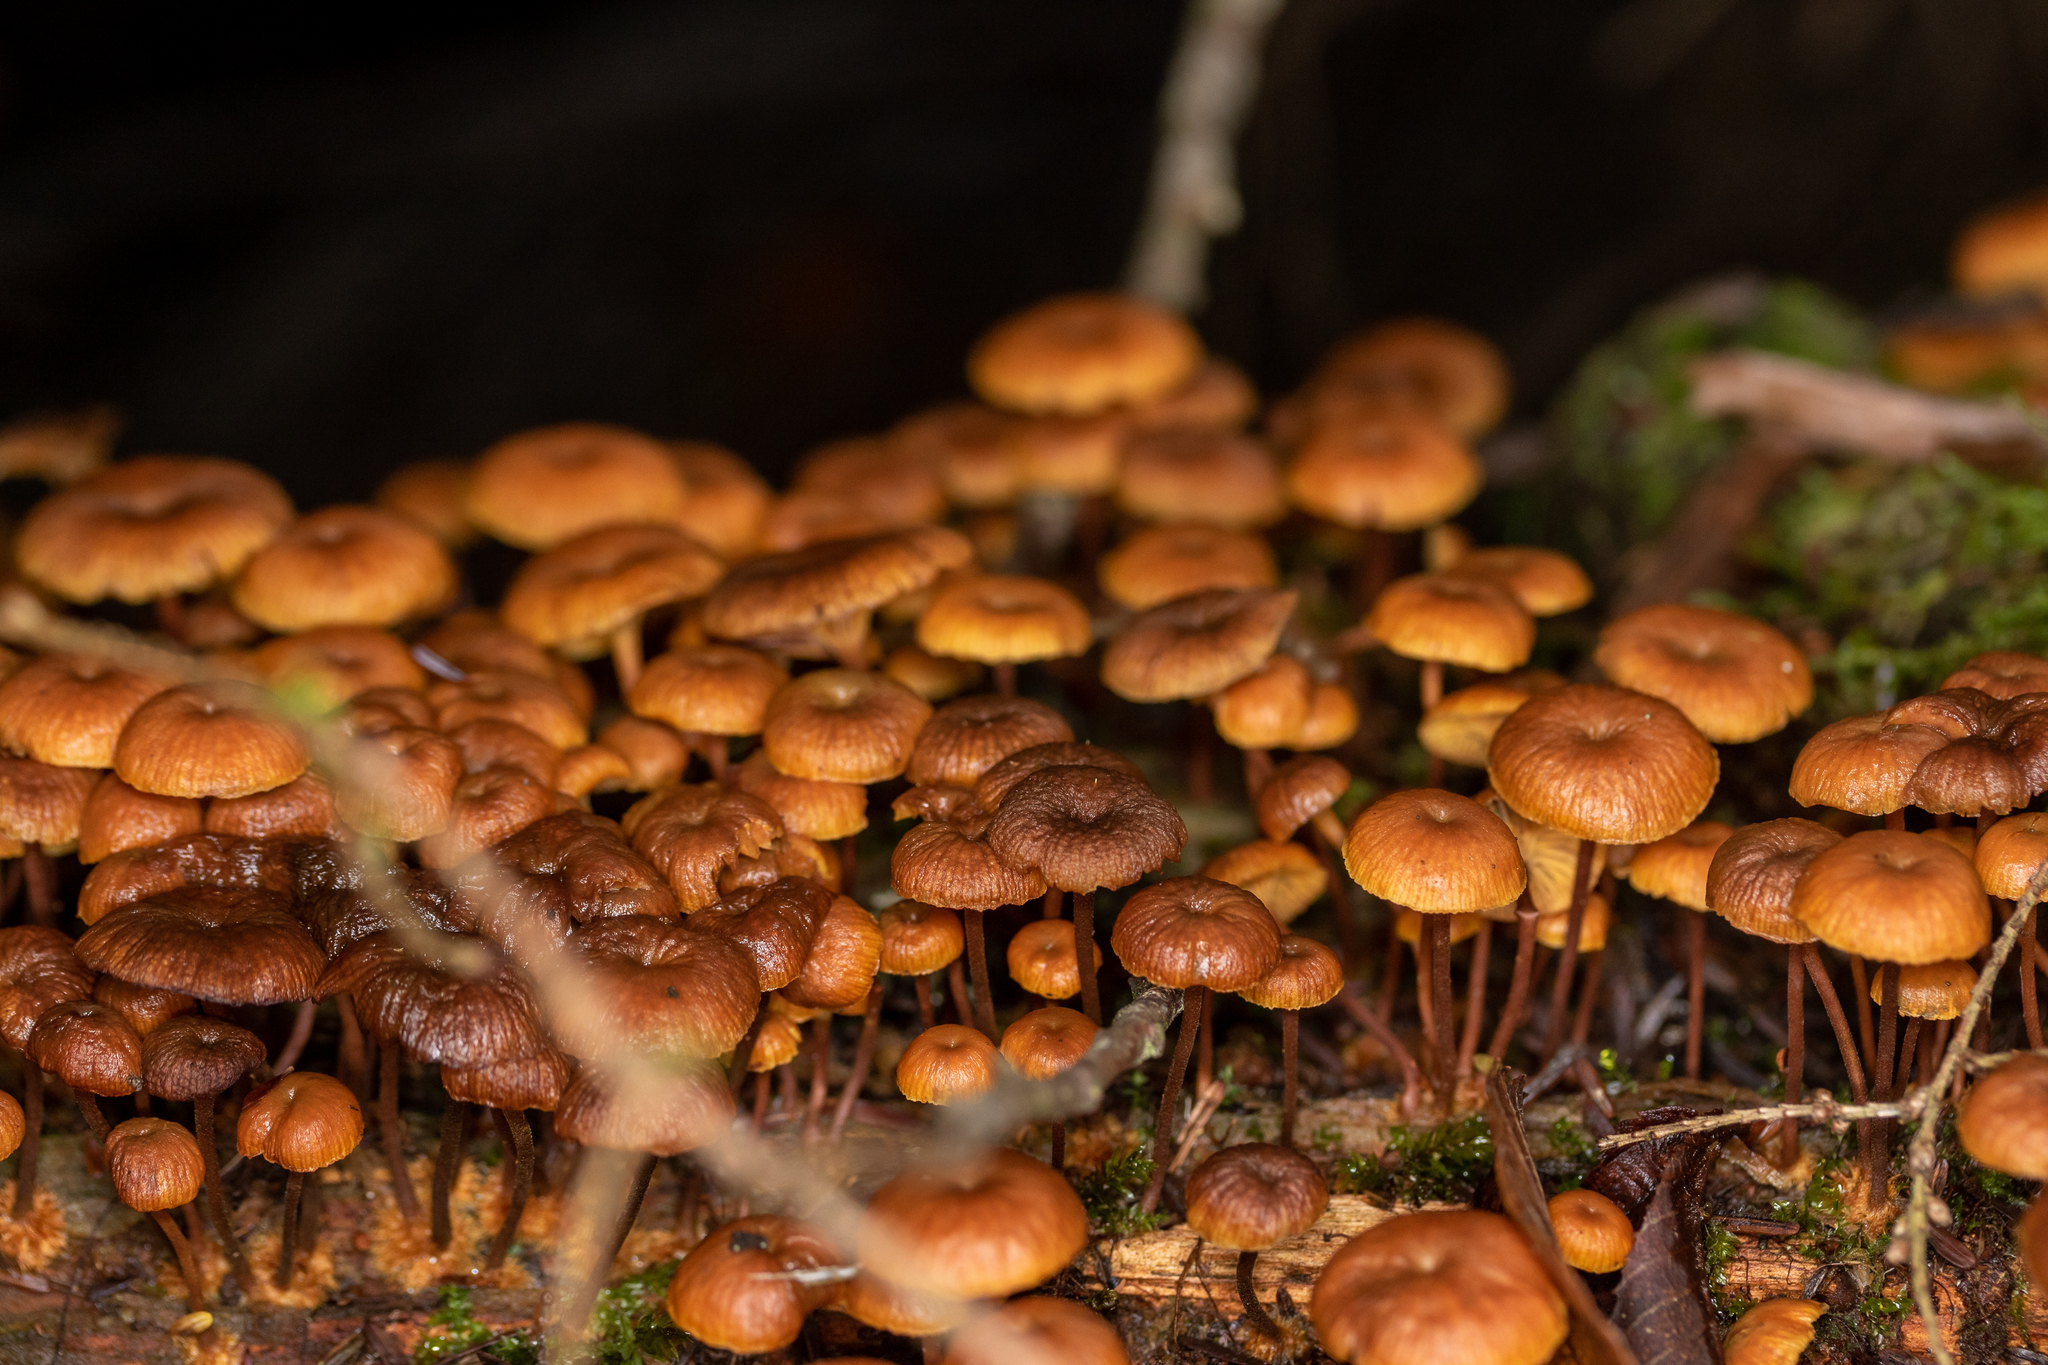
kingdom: Fungi
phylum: Basidiomycota
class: Agaricomycetes
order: Agaricales
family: Mycenaceae
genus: Xeromphalina
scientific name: Xeromphalina campanella
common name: Pinewood gingertail
